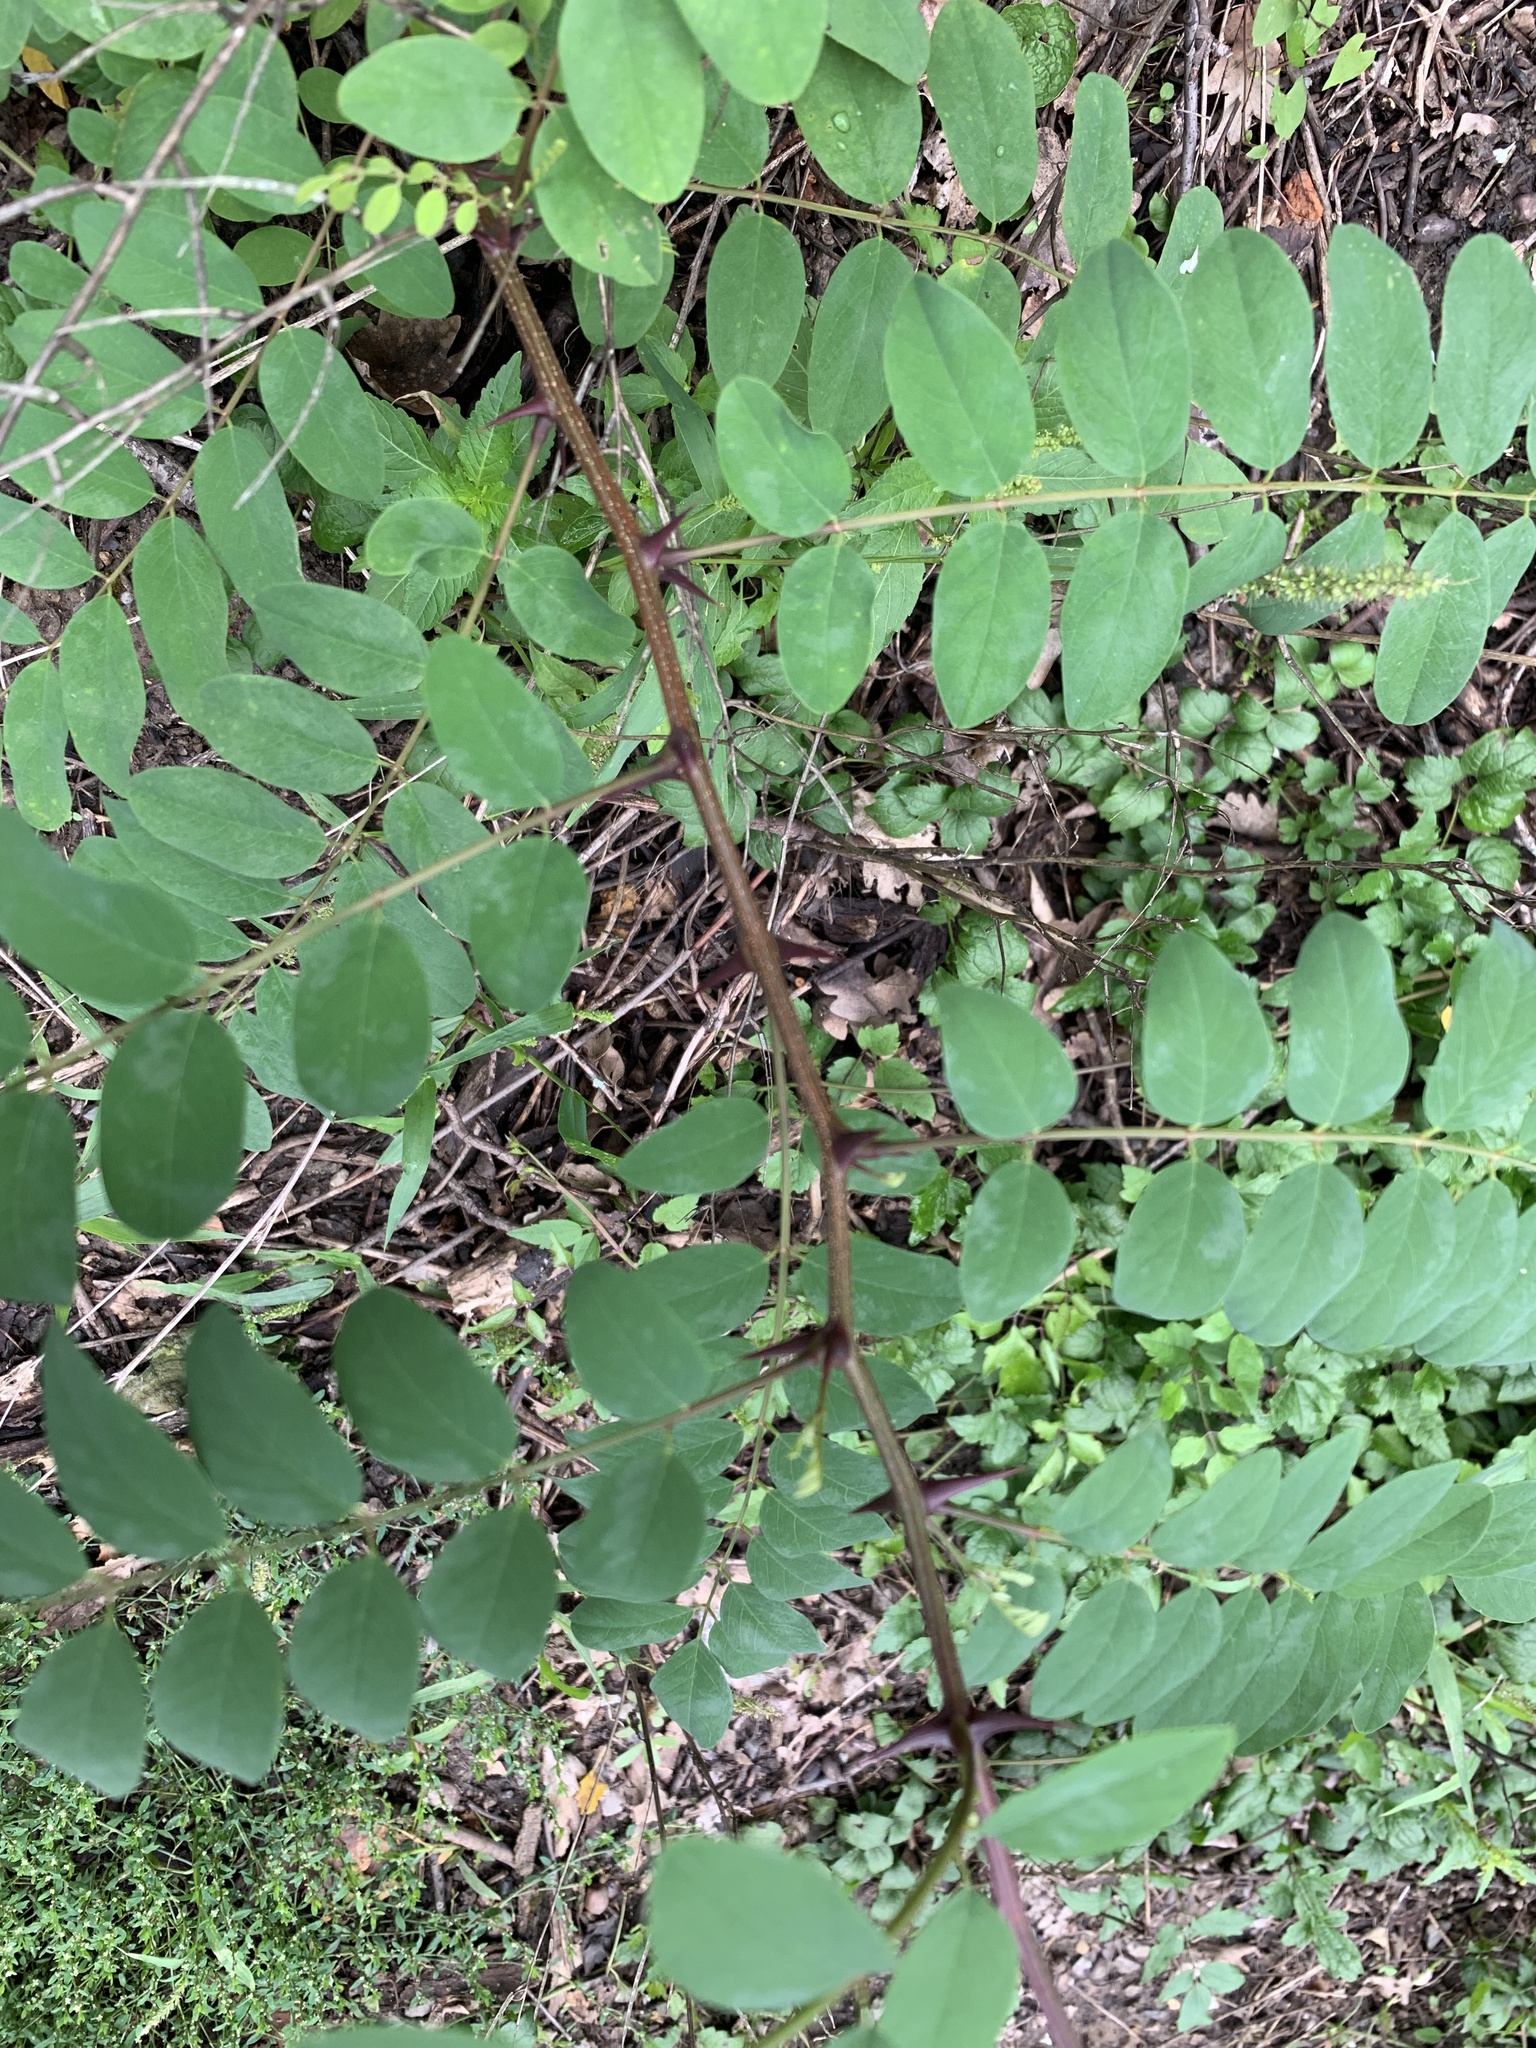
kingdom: Plantae
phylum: Tracheophyta
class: Magnoliopsida
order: Fabales
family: Fabaceae
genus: Robinia
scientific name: Robinia pseudoacacia
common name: Black locust
